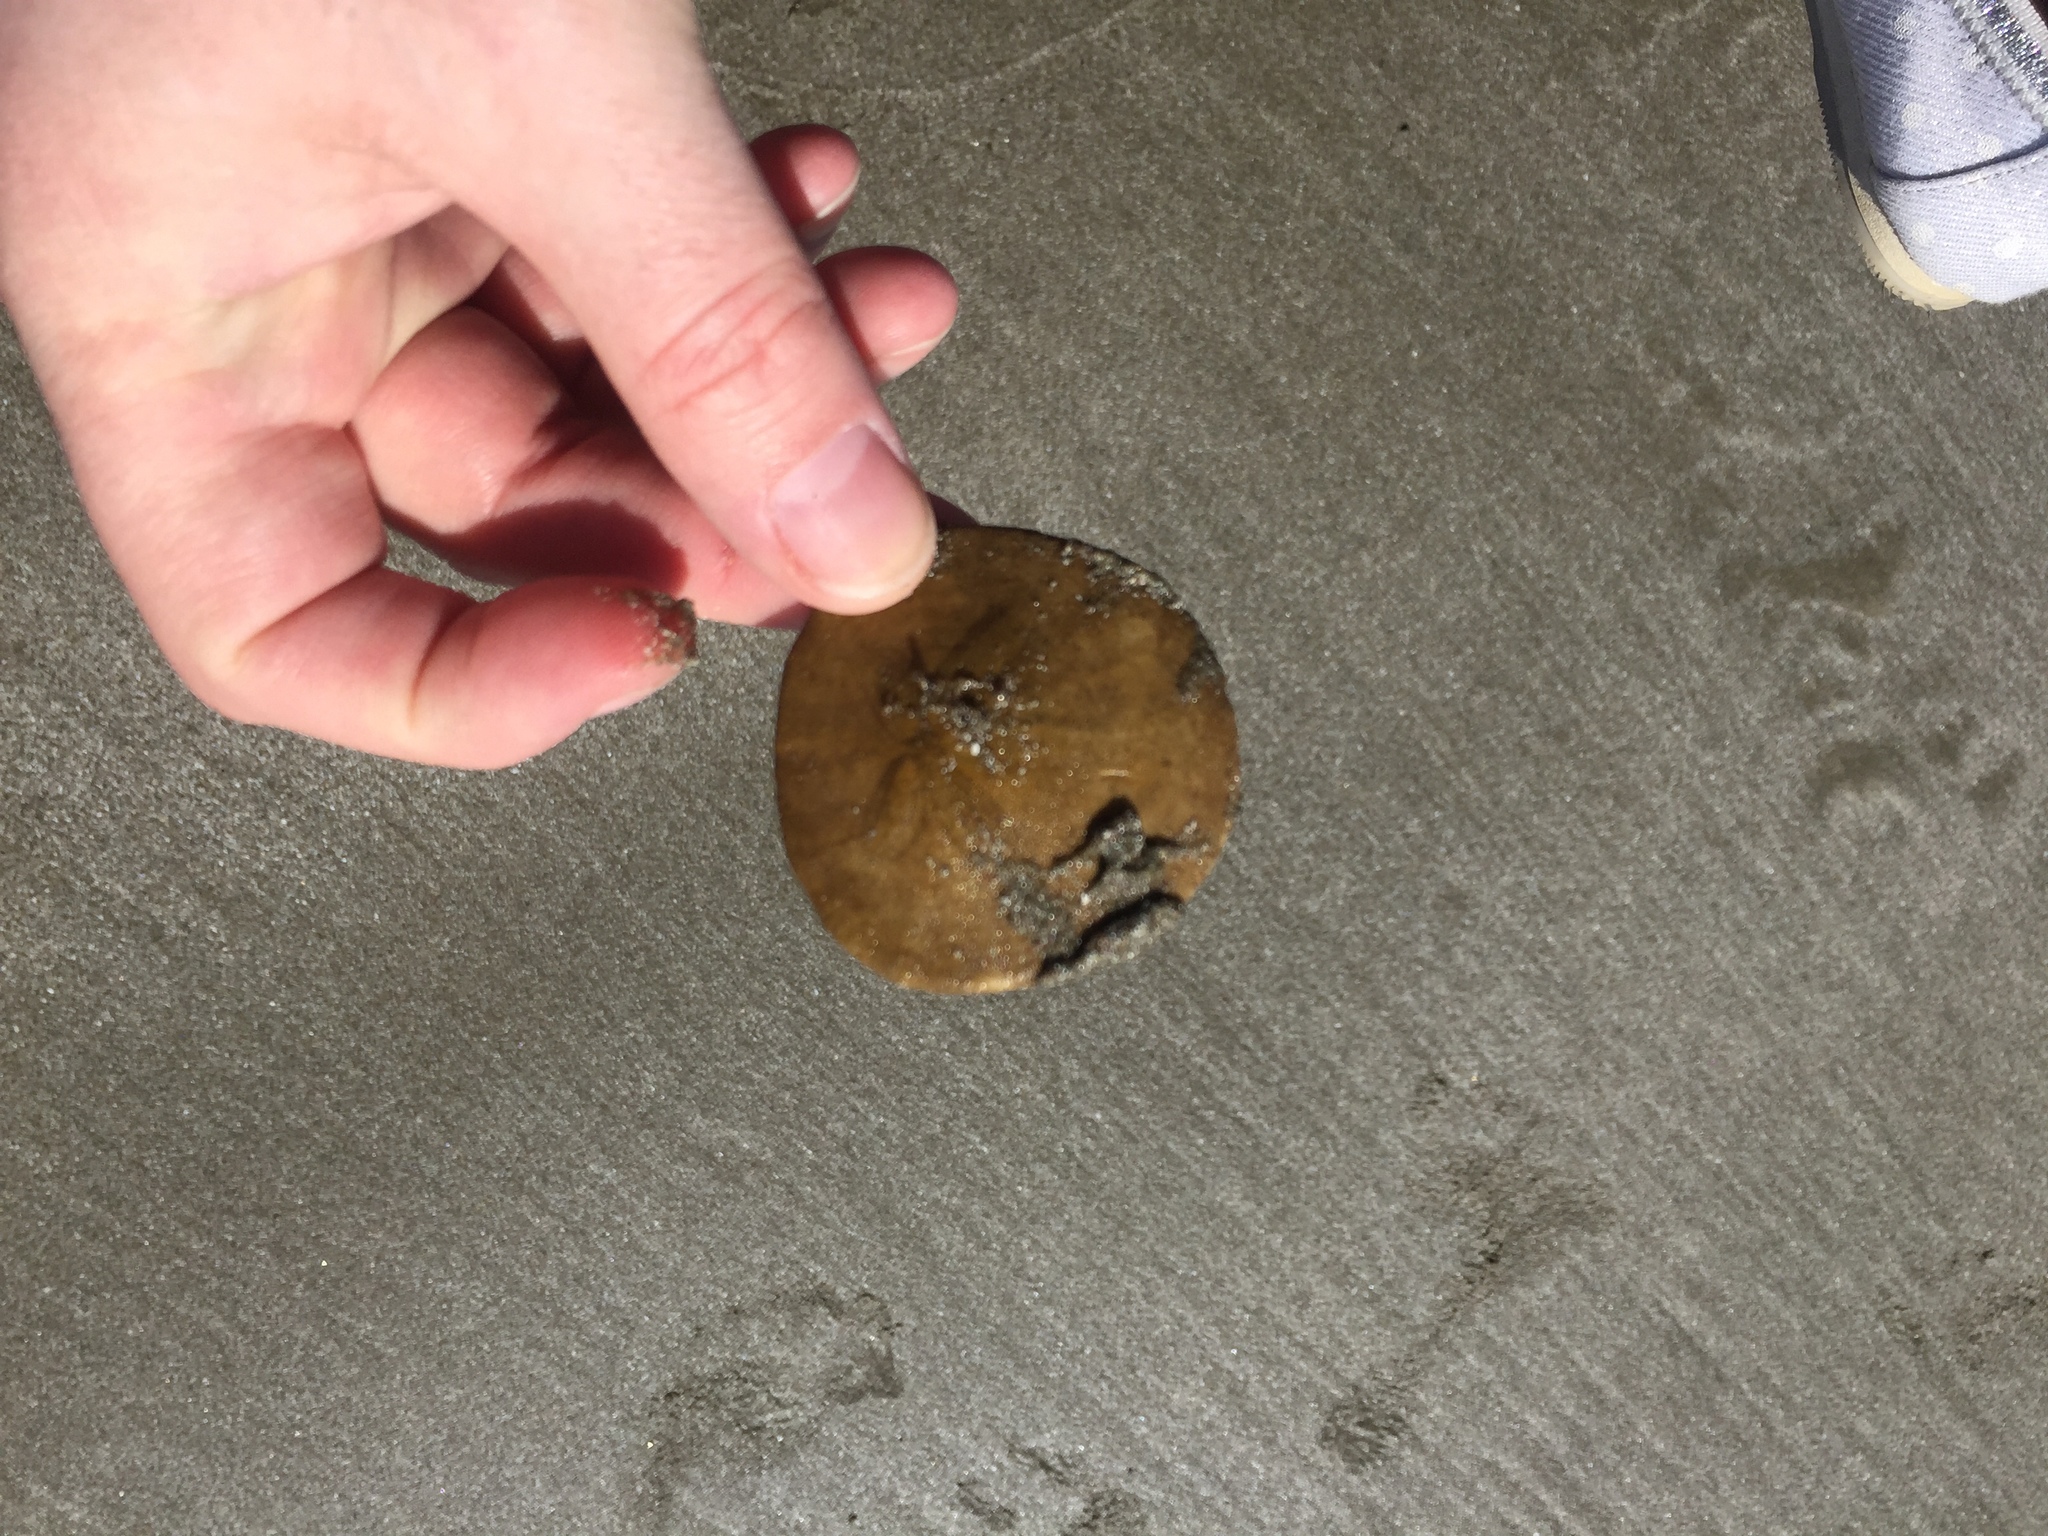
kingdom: Animalia
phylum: Echinodermata
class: Echinoidea
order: Echinolampadacea
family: Dendrasteridae
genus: Dendraster
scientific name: Dendraster excentricus
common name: Eccentric sand dollar sea urchin
